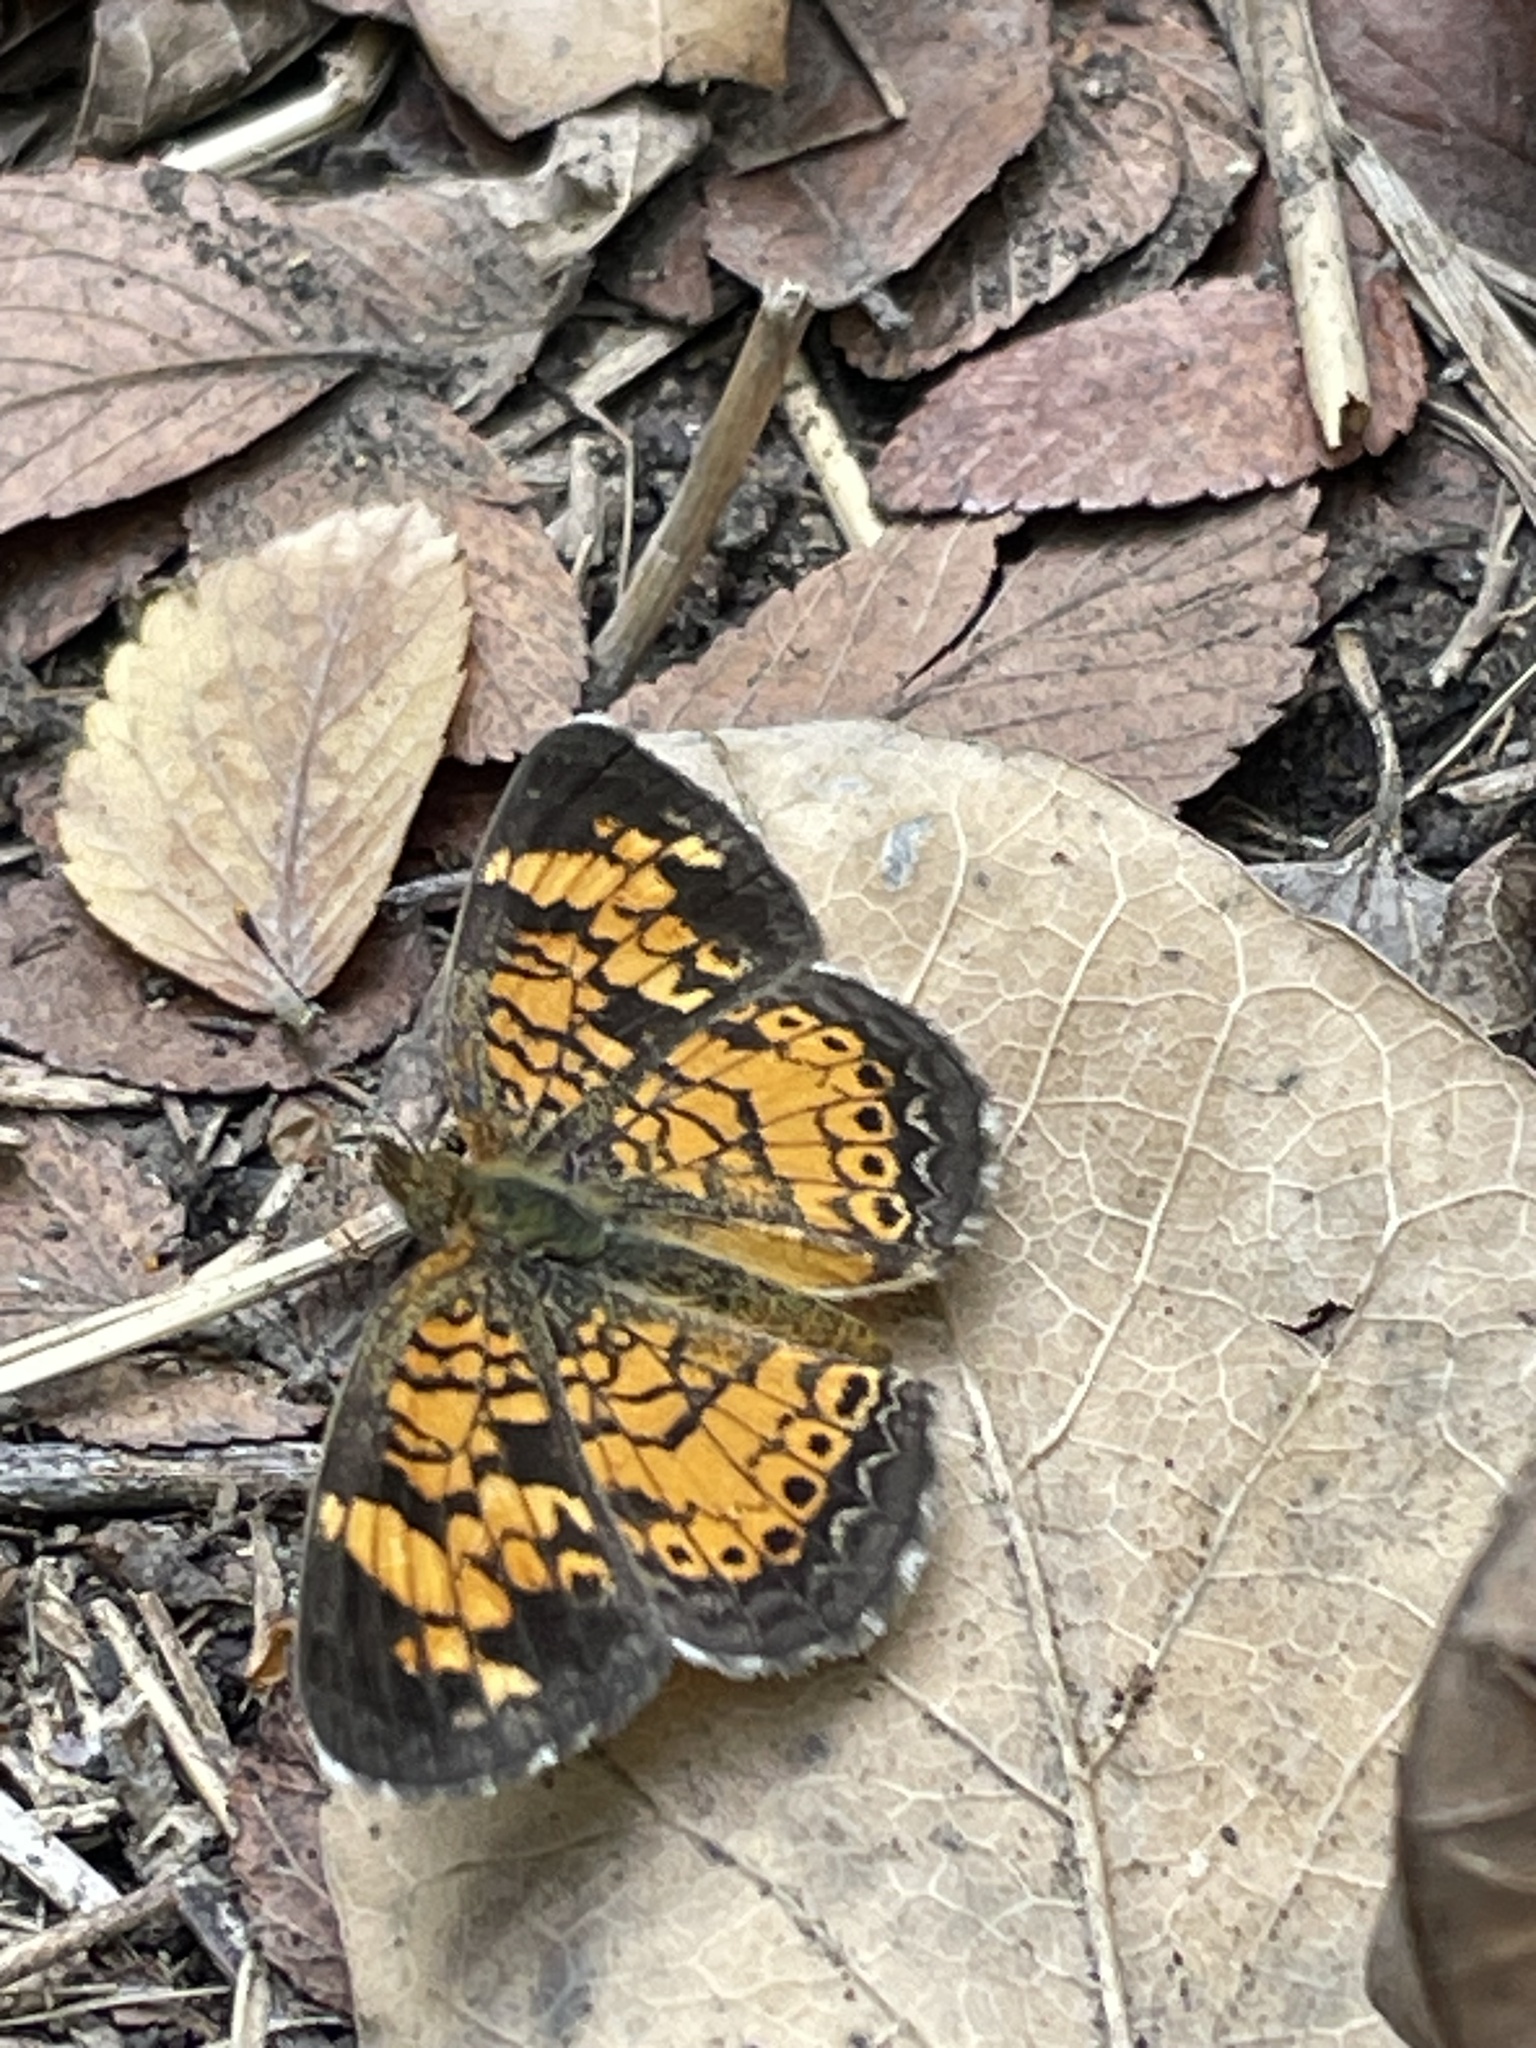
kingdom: Animalia
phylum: Arthropoda
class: Insecta
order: Lepidoptera
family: Nymphalidae
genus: Phyciodes
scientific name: Phyciodes tharos
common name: Pearl crescent
